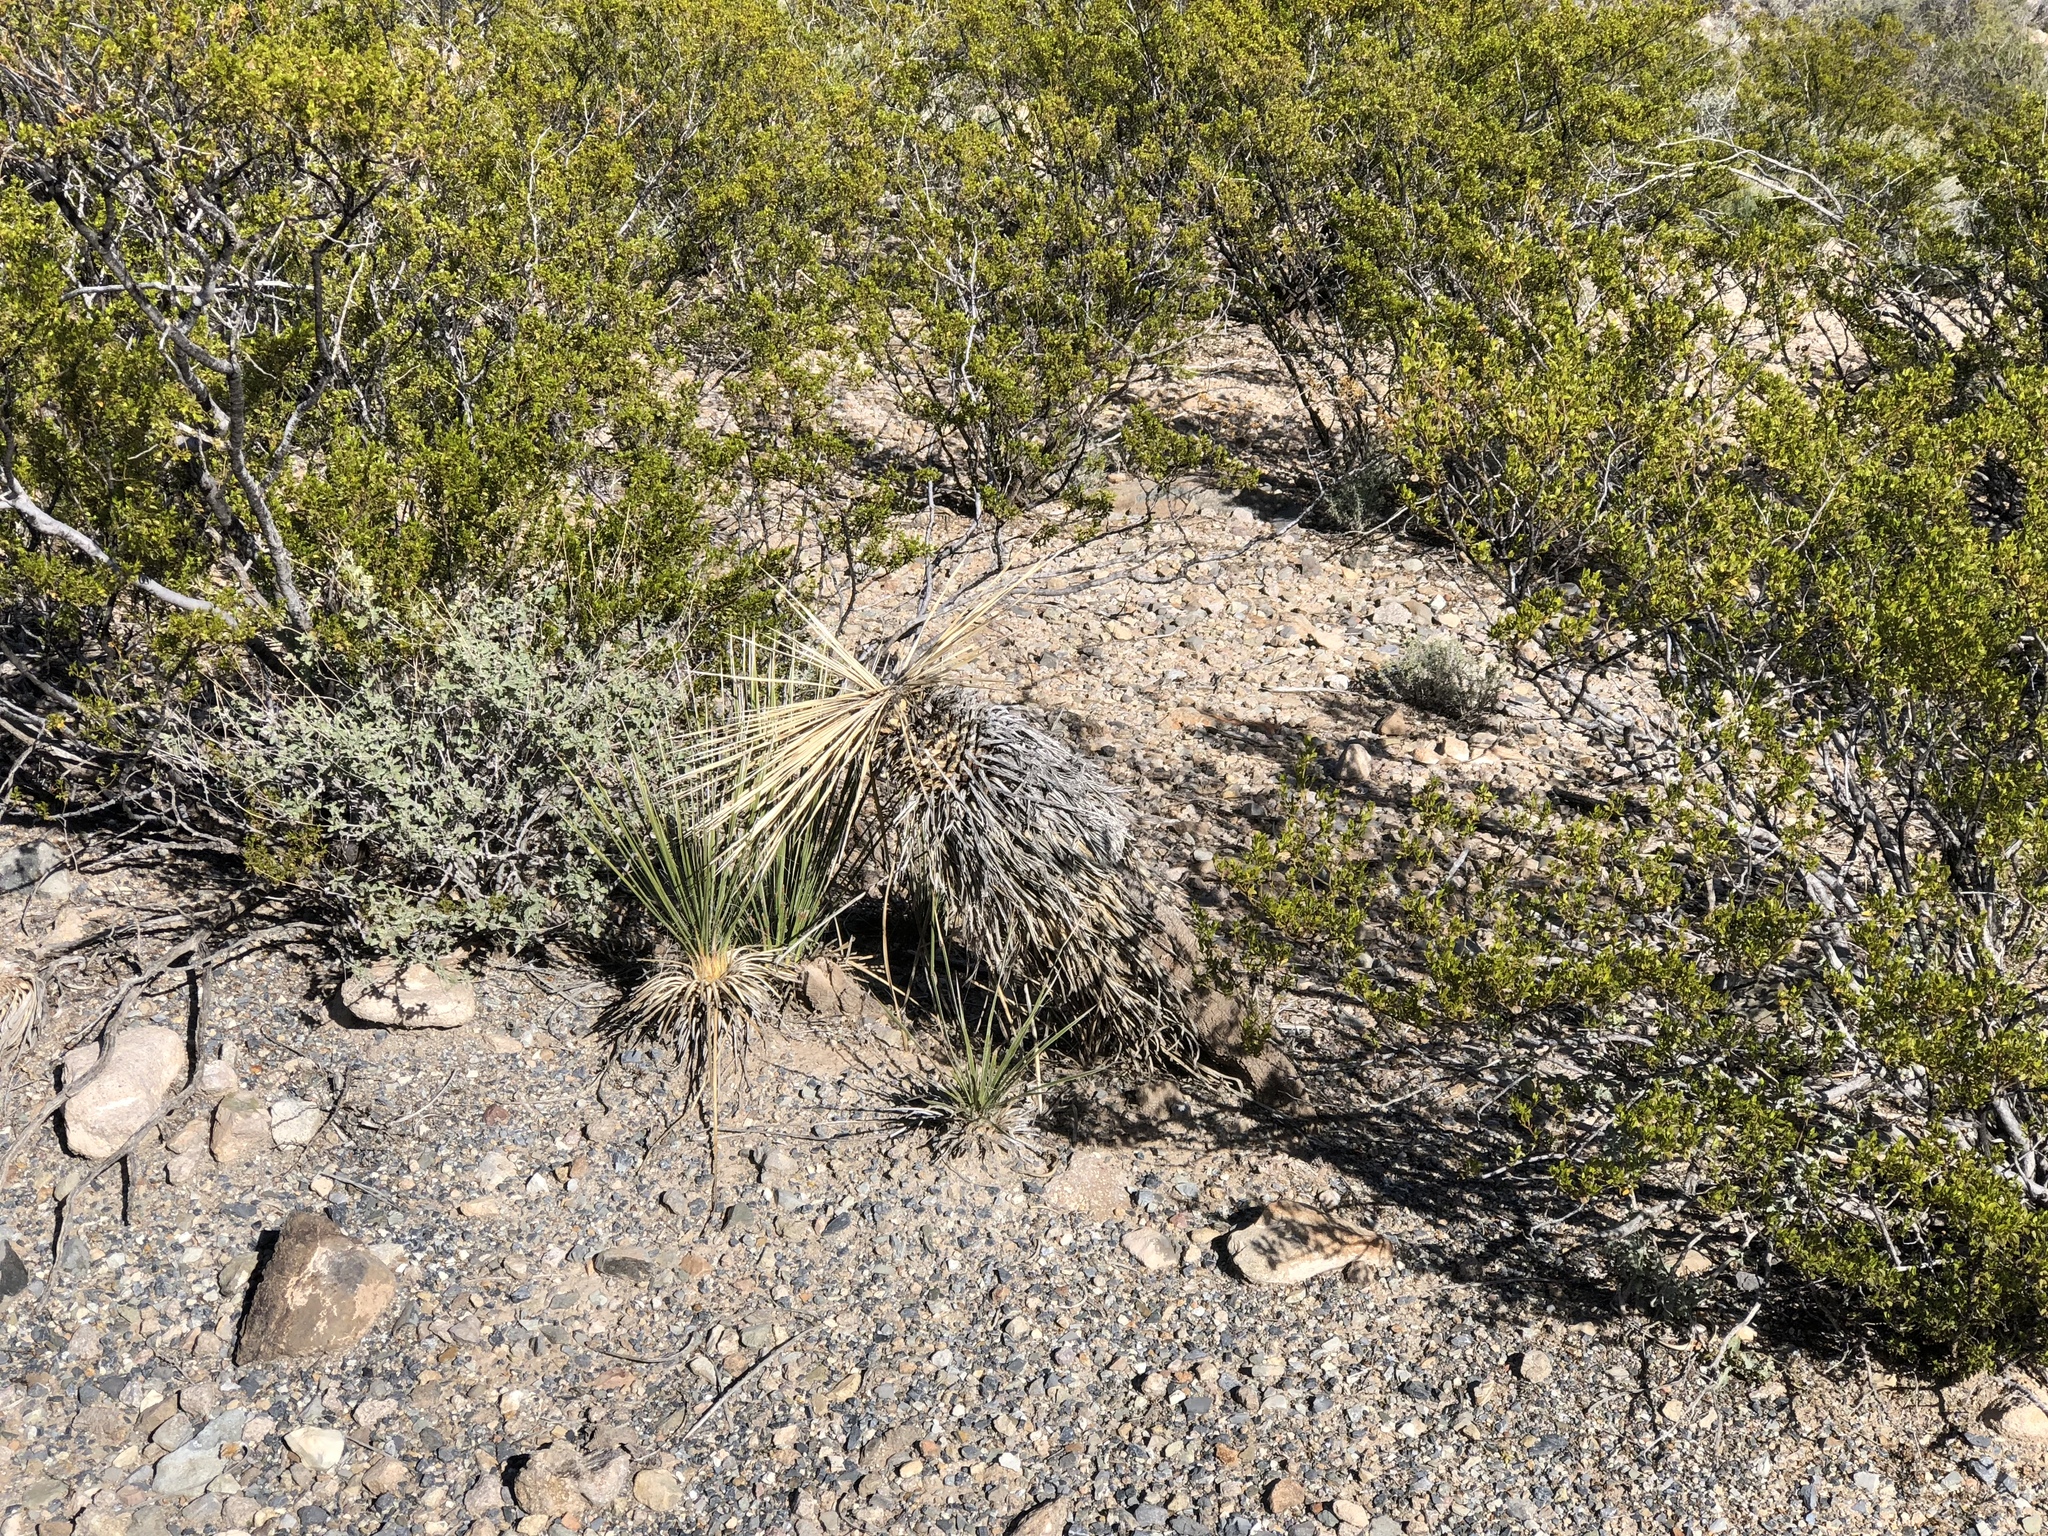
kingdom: Plantae
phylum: Tracheophyta
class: Liliopsida
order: Asparagales
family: Asparagaceae
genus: Yucca
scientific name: Yucca elata
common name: Palmella
